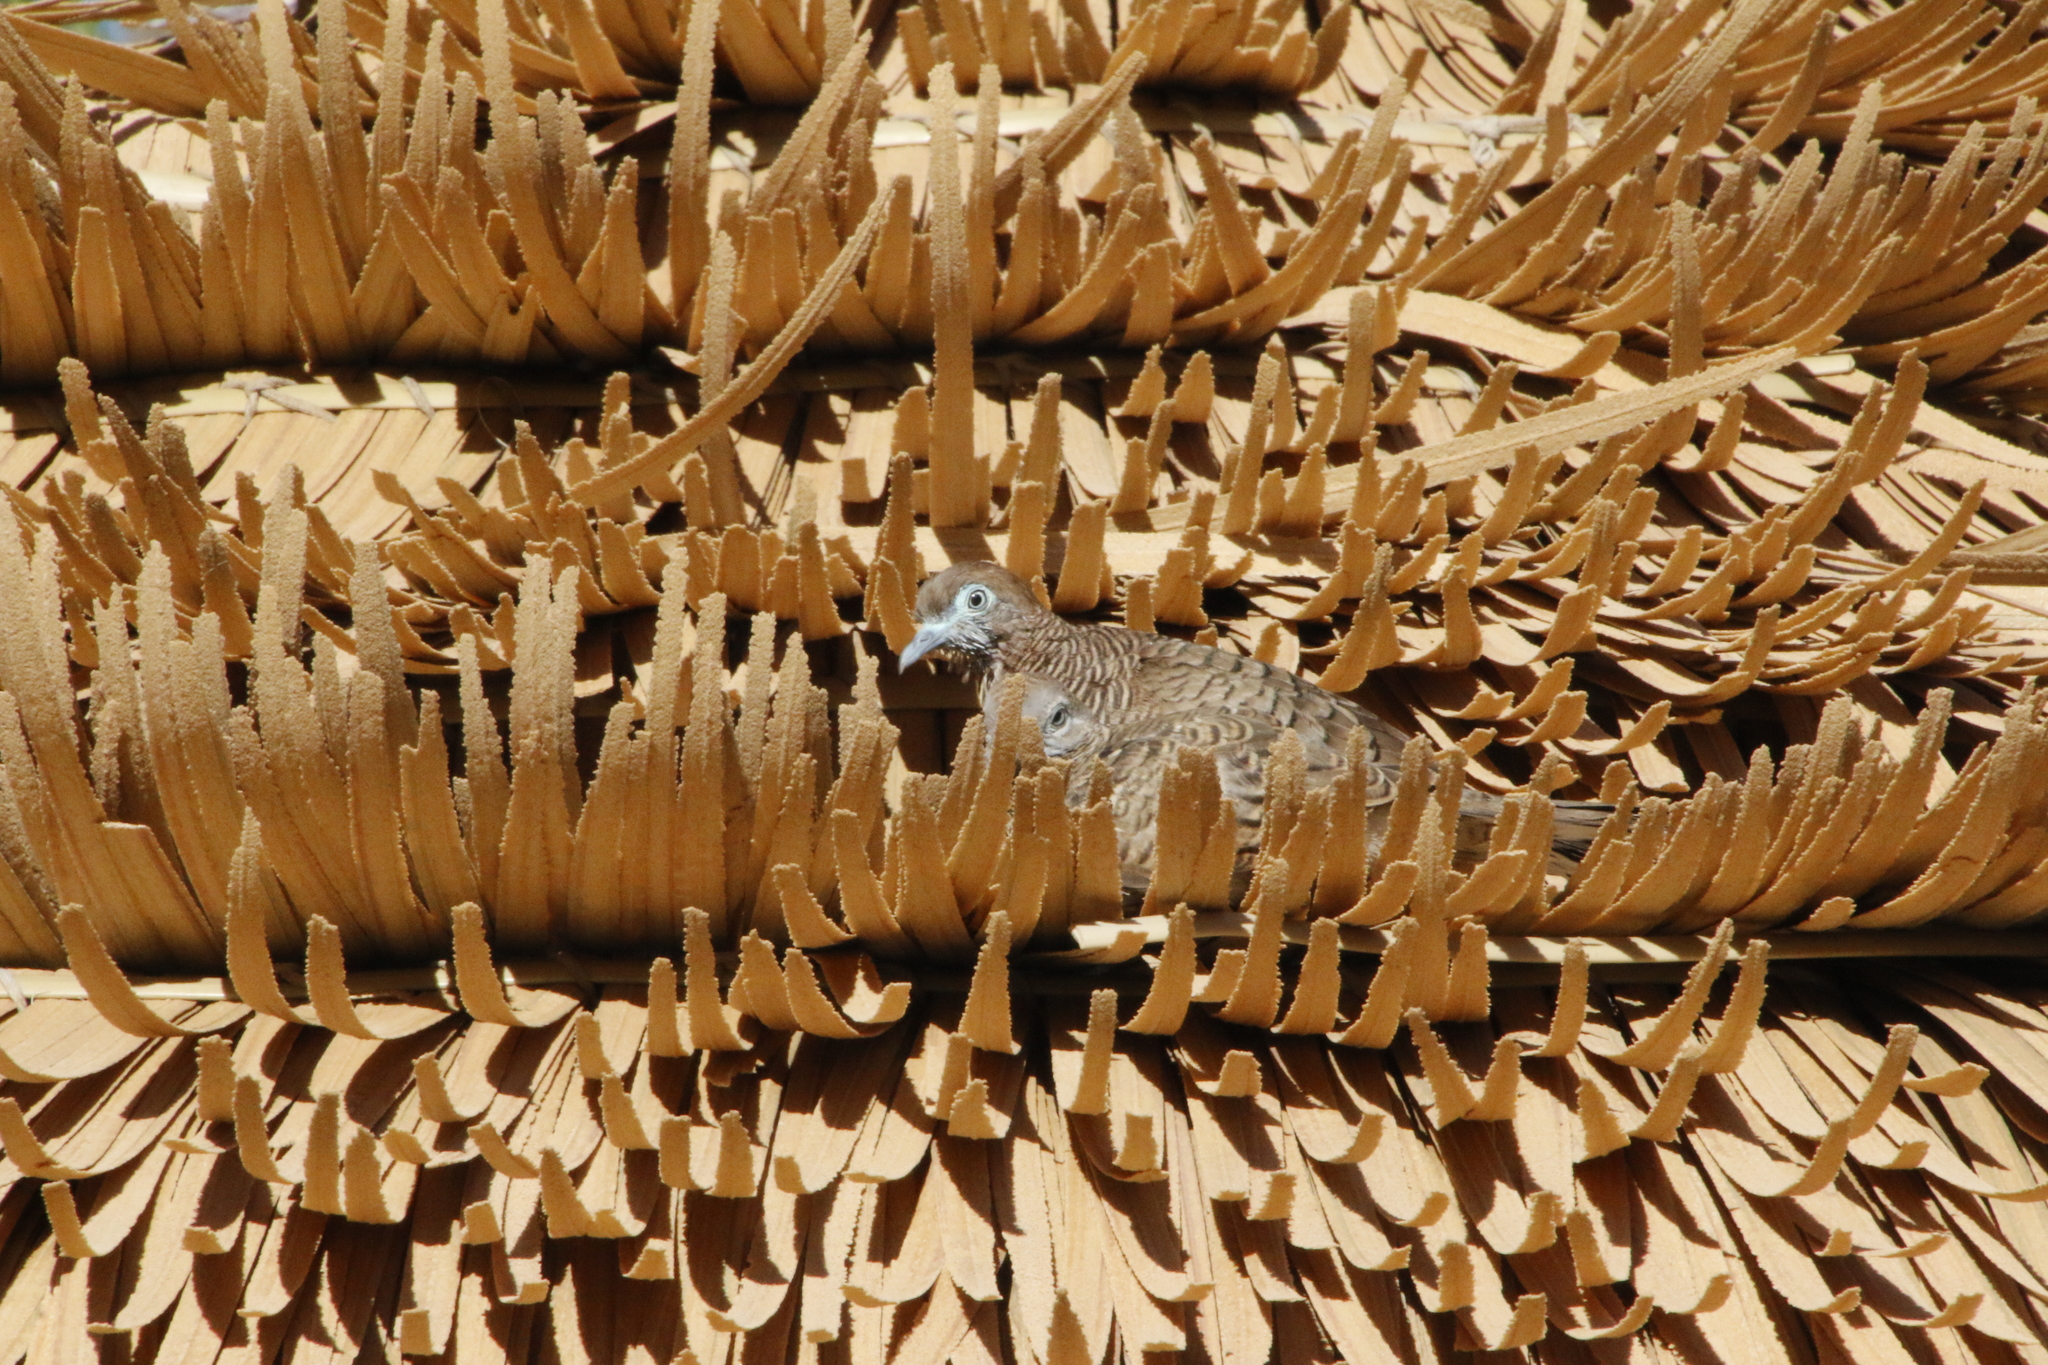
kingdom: Animalia
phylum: Chordata
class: Aves
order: Columbiformes
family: Columbidae
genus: Geopelia
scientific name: Geopelia striata
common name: Zebra dove
